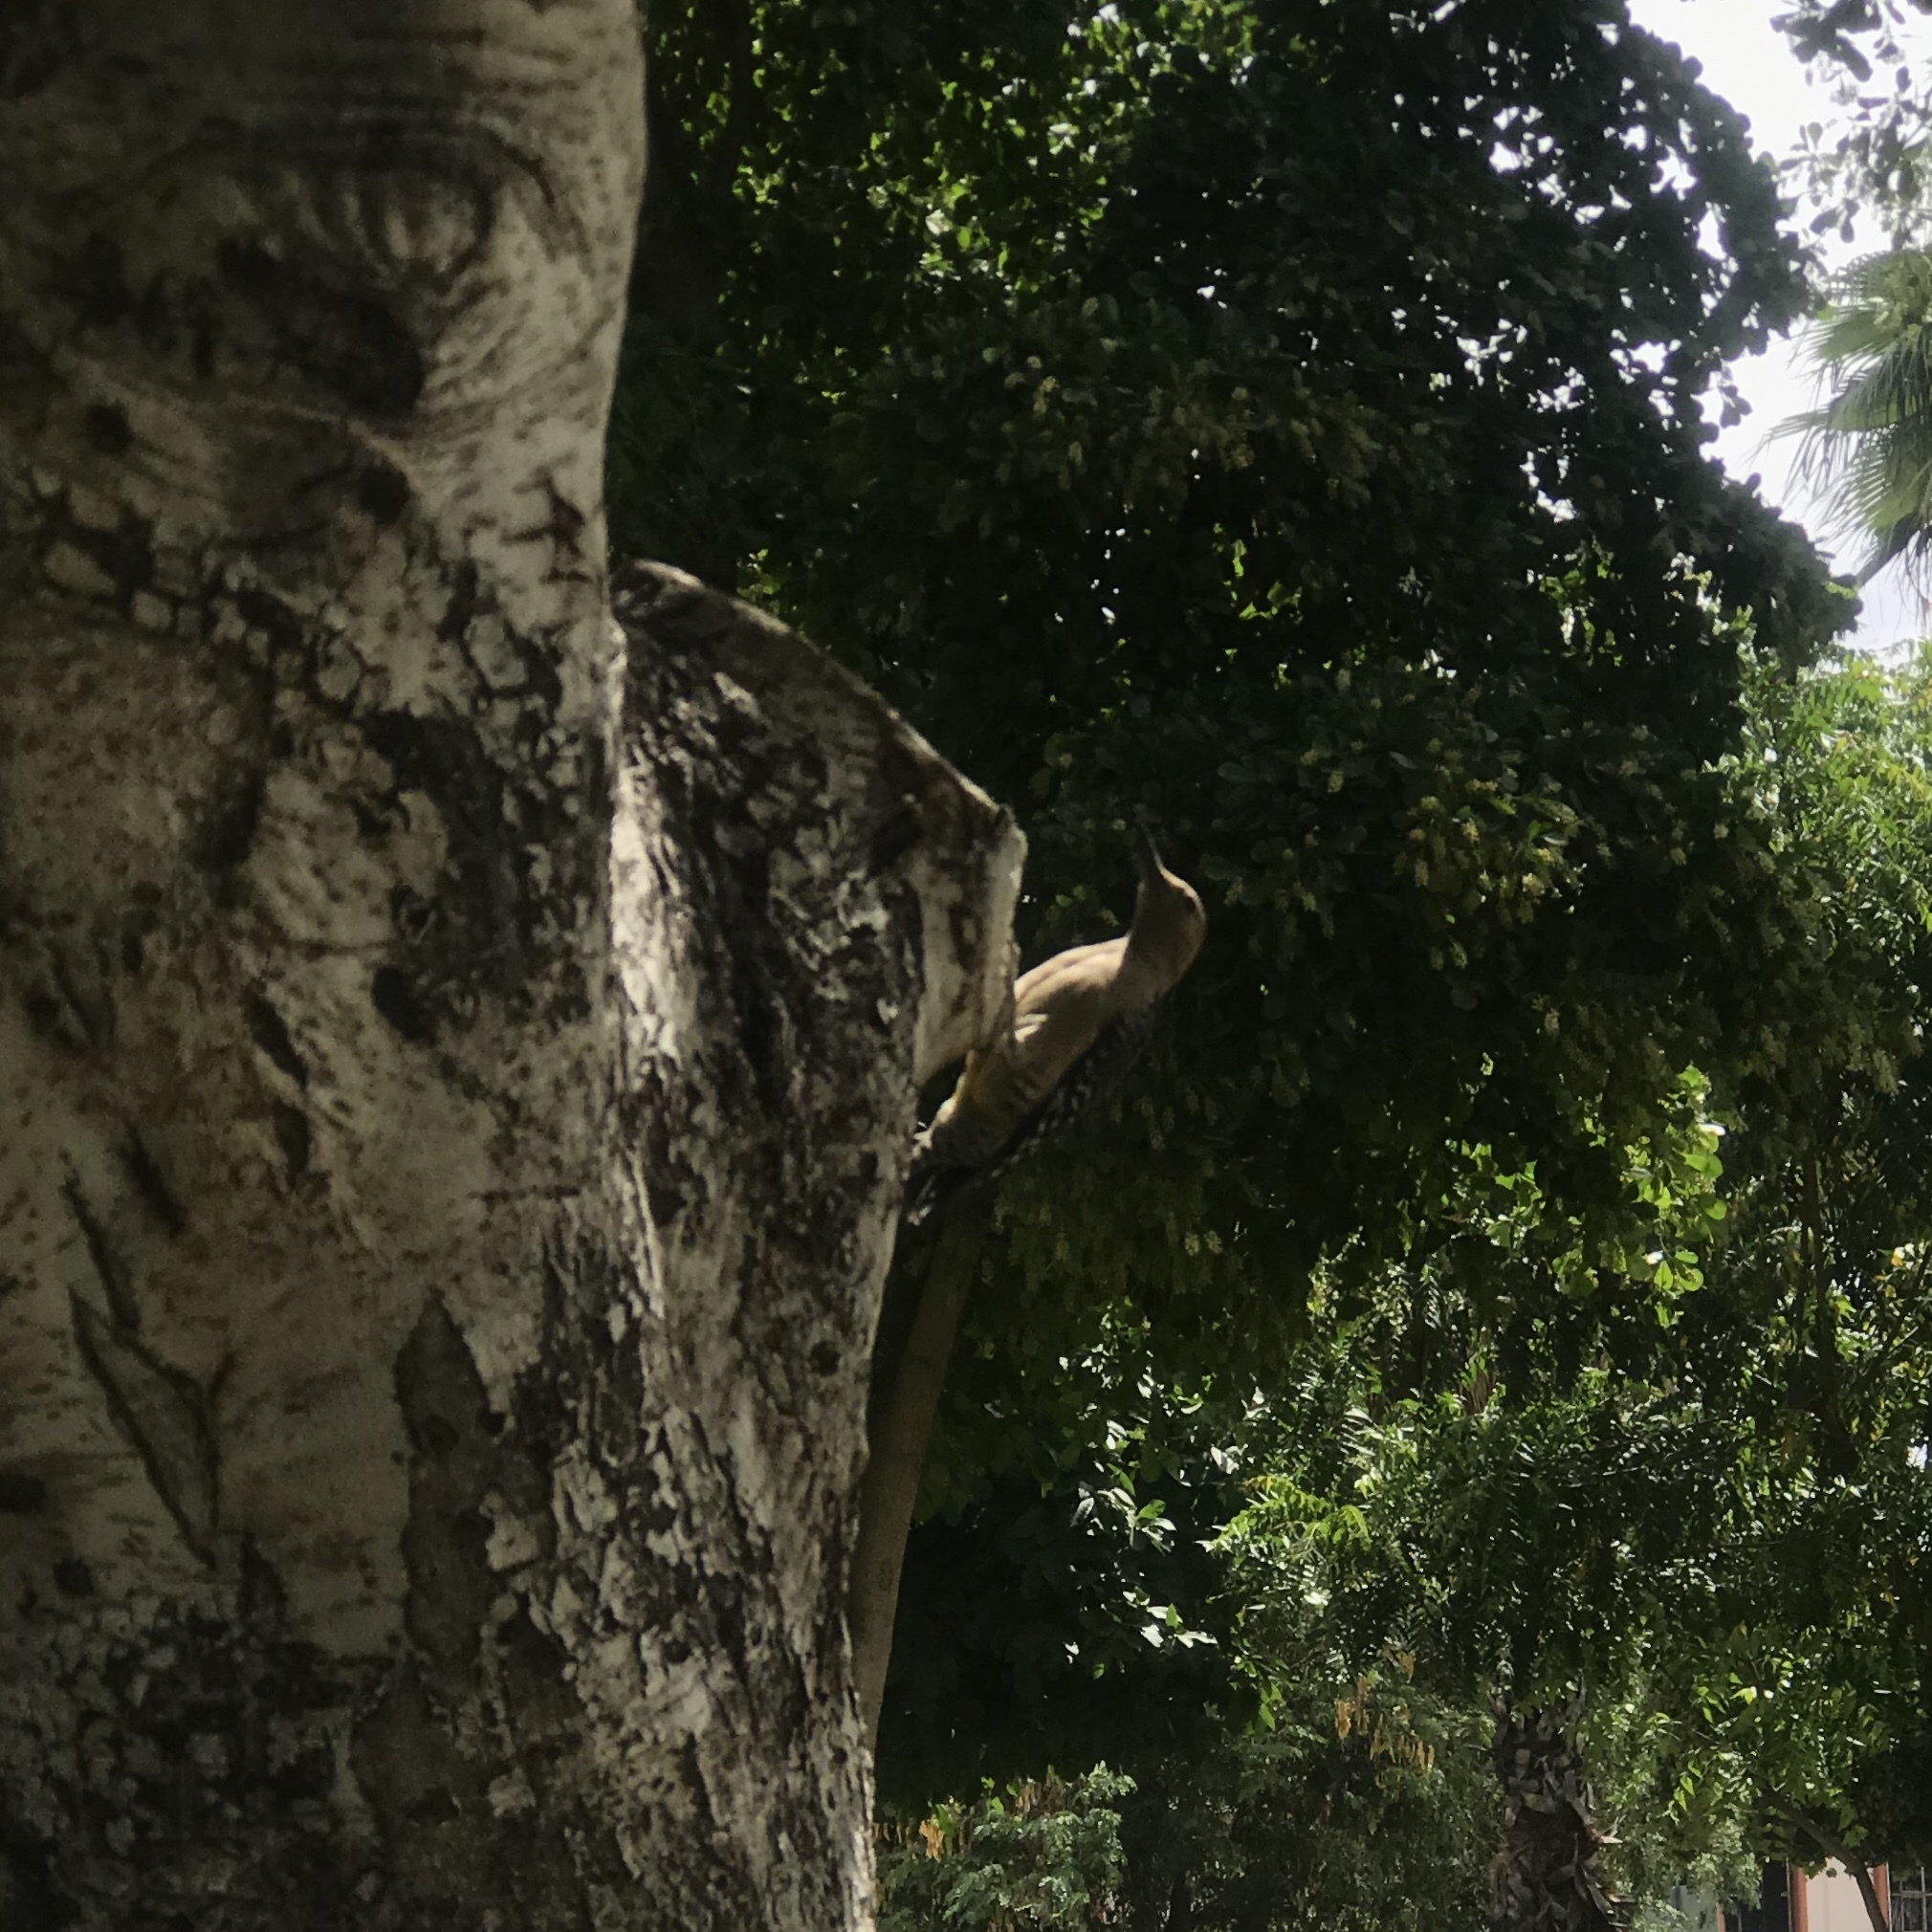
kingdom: Animalia
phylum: Chordata
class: Aves
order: Piciformes
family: Picidae
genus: Melanerpes
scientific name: Melanerpes uropygialis
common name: Gila woodpecker
